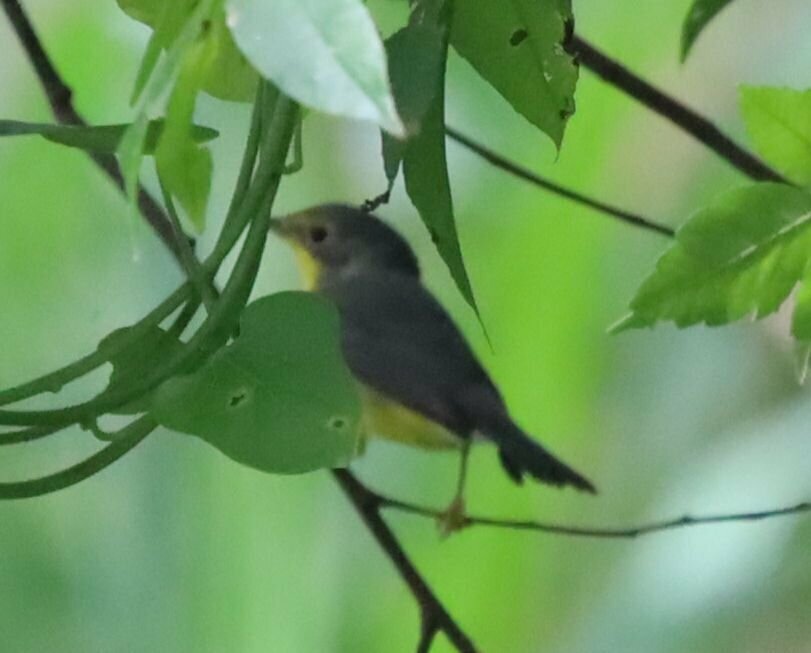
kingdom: Animalia
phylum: Chordata
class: Aves
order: Passeriformes
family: Parulidae
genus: Cardellina
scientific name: Cardellina canadensis
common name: Canada warbler
